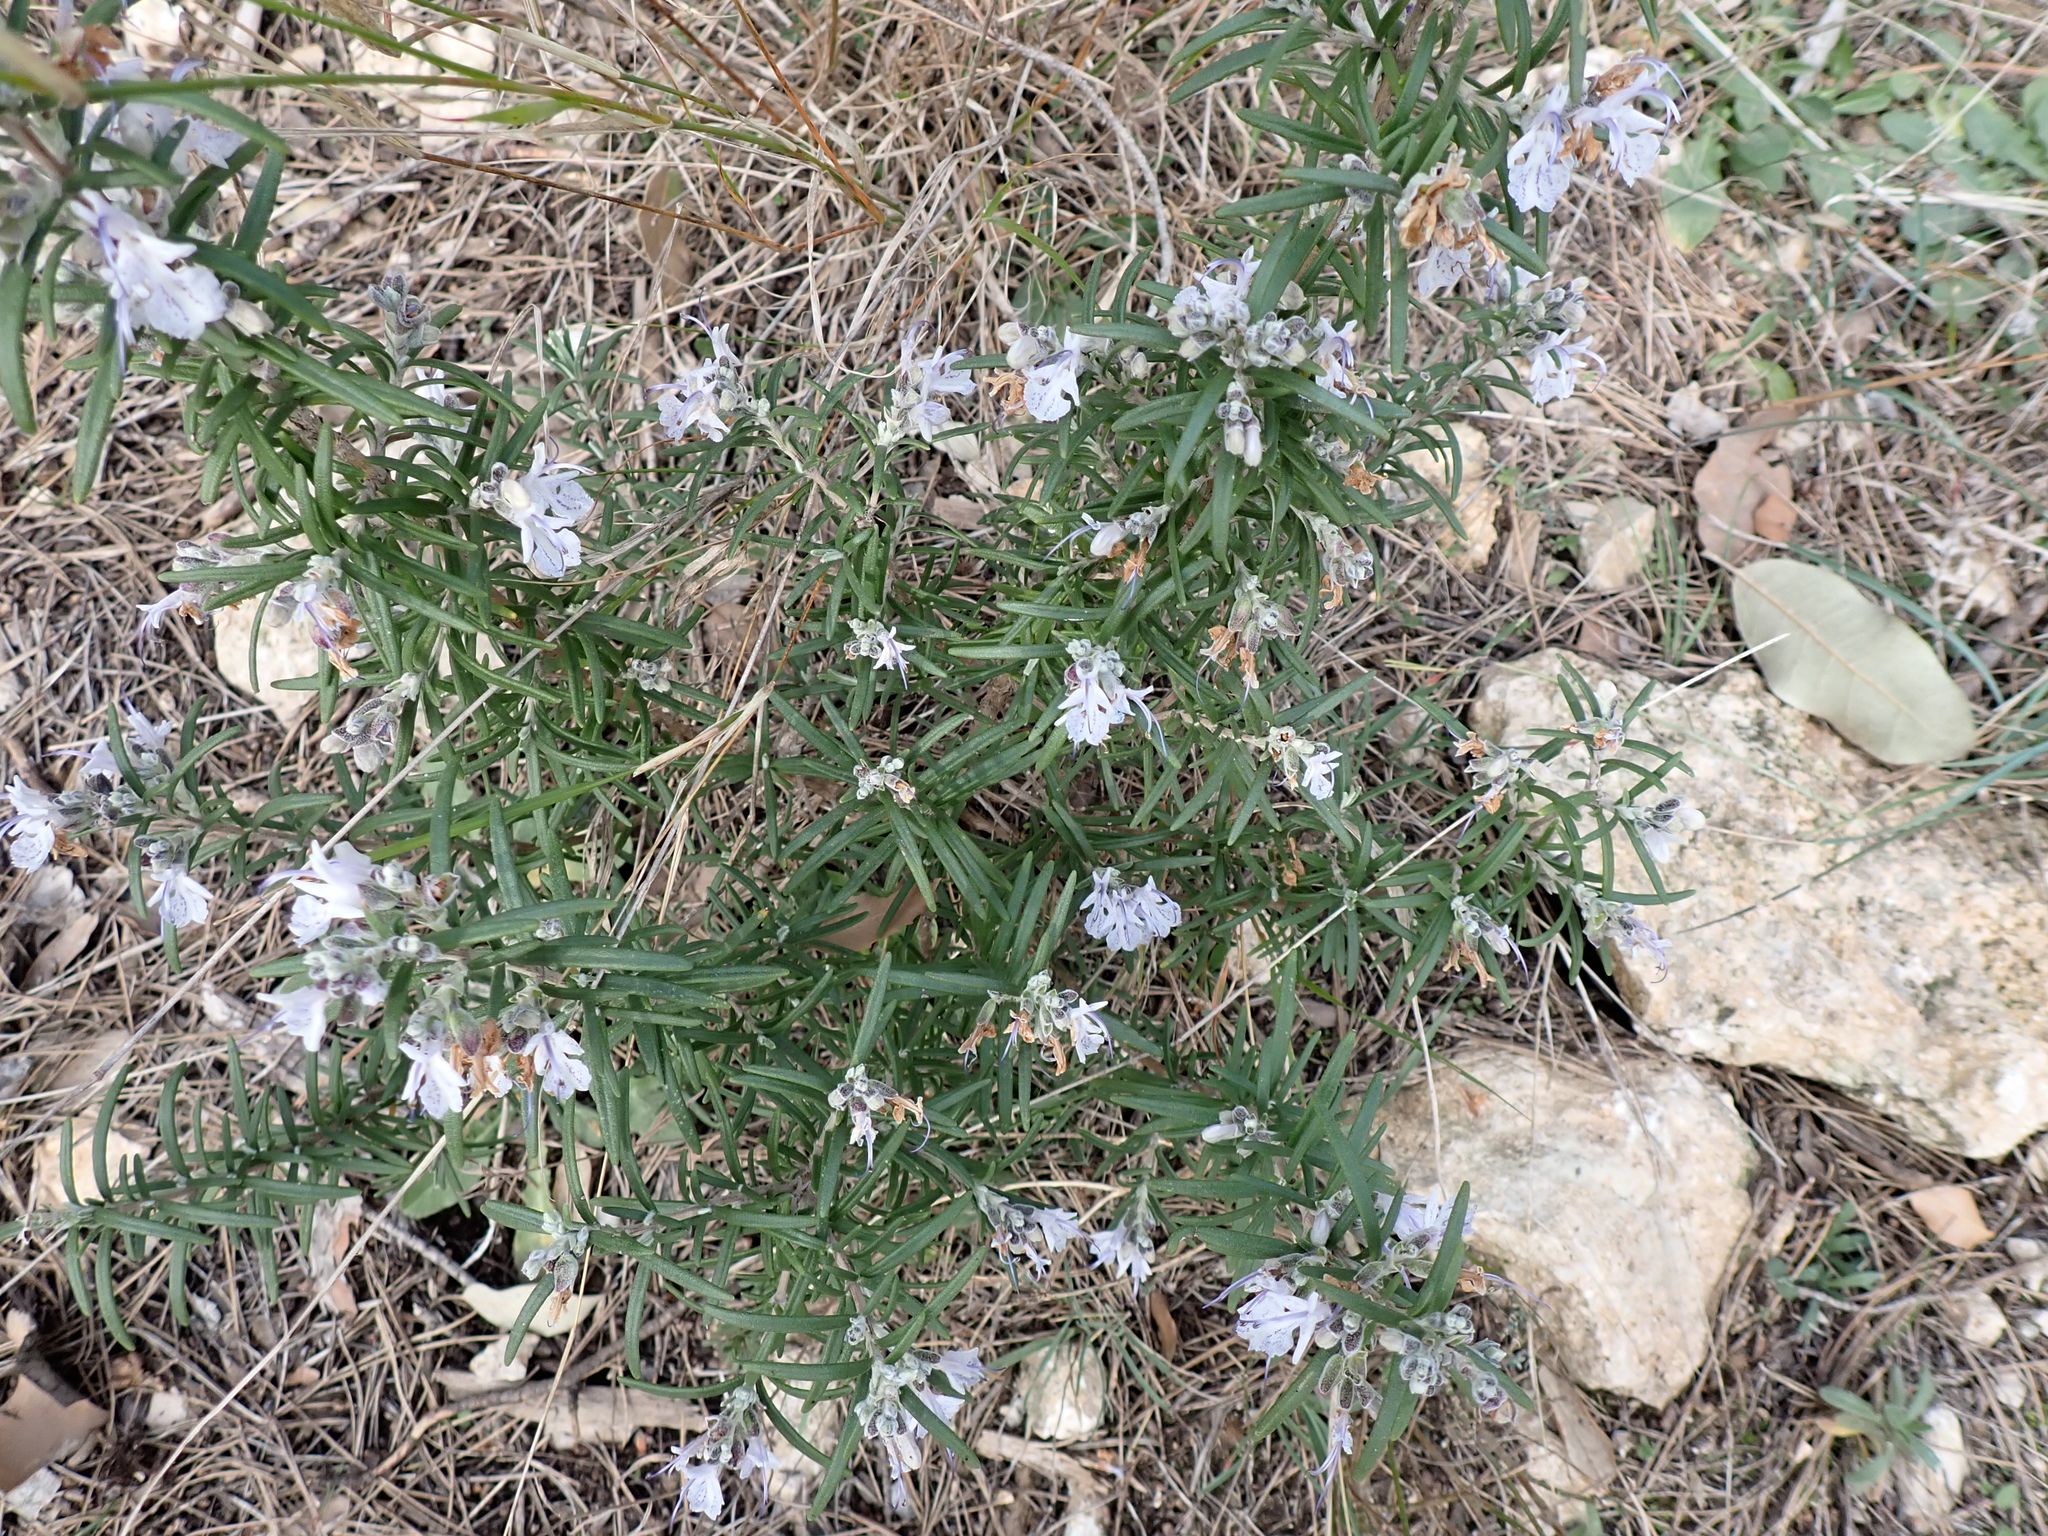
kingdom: Plantae
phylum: Tracheophyta
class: Magnoliopsida
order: Lamiales
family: Lamiaceae
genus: Salvia
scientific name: Salvia rosmarinus
